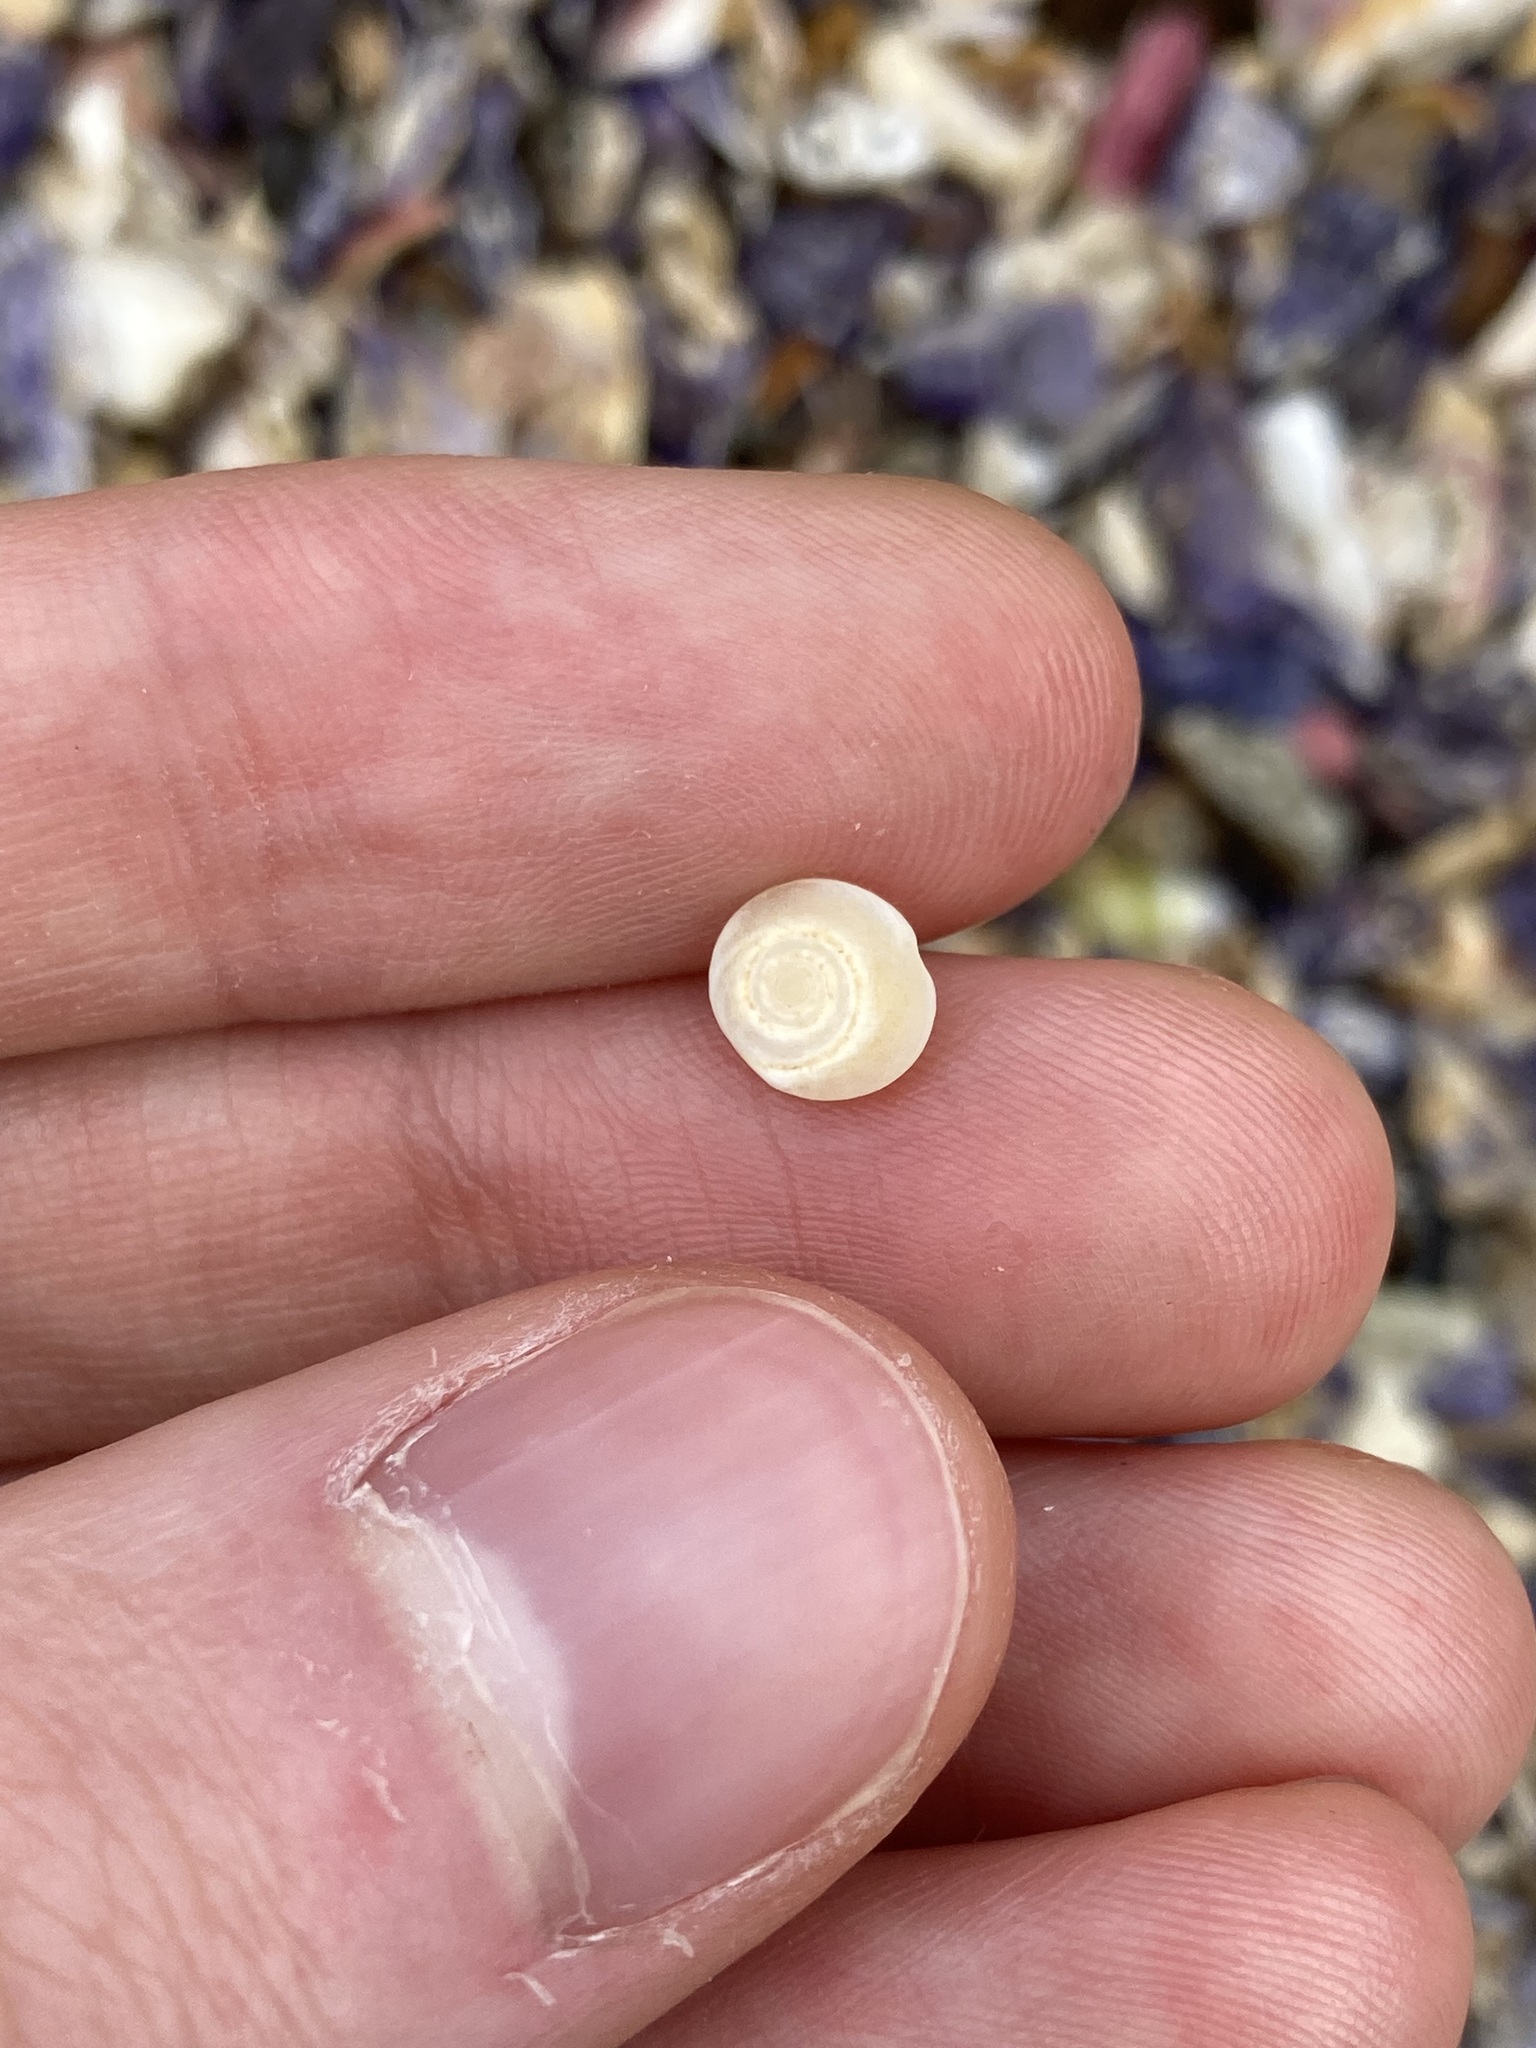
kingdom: Animalia
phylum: Mollusca
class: Gastropoda
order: Trochida
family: Turbinidae
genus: Lunella
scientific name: Lunella undulata
